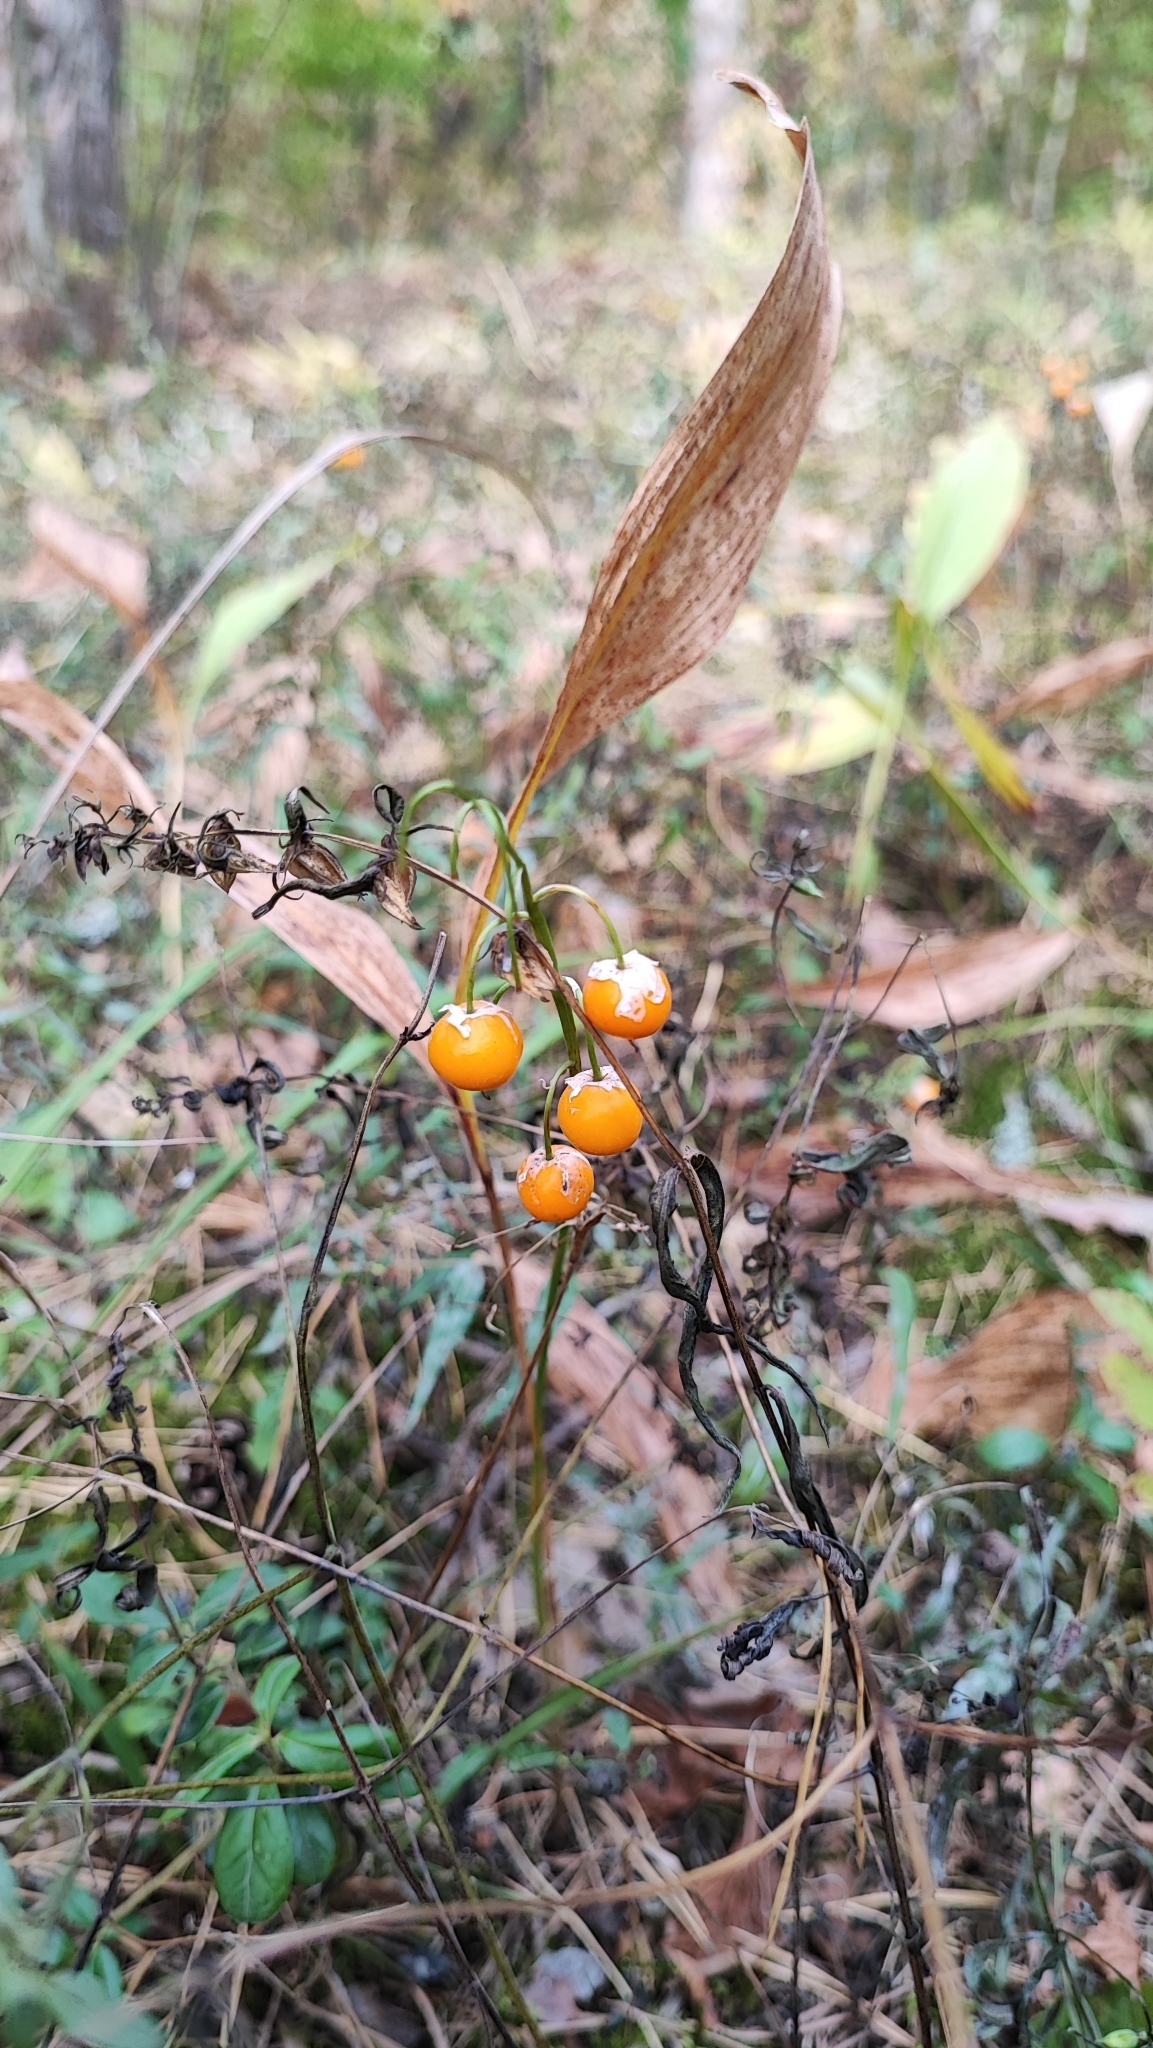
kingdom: Plantae
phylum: Tracheophyta
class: Liliopsida
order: Asparagales
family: Asparagaceae
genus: Convallaria
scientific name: Convallaria majalis
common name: Lily-of-the-valley
